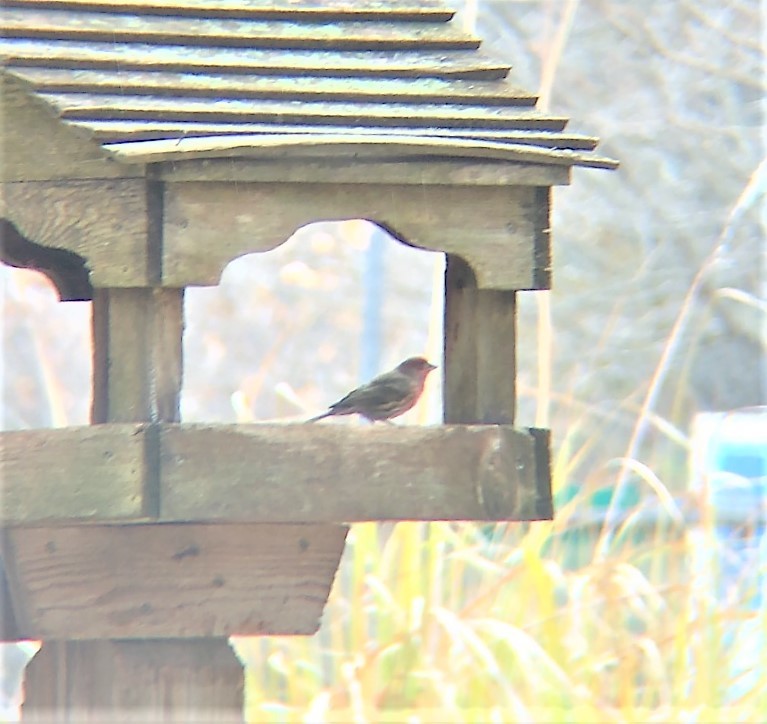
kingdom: Animalia
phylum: Chordata
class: Aves
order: Passeriformes
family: Fringillidae
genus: Haemorhous
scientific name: Haemorhous mexicanus
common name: House finch
